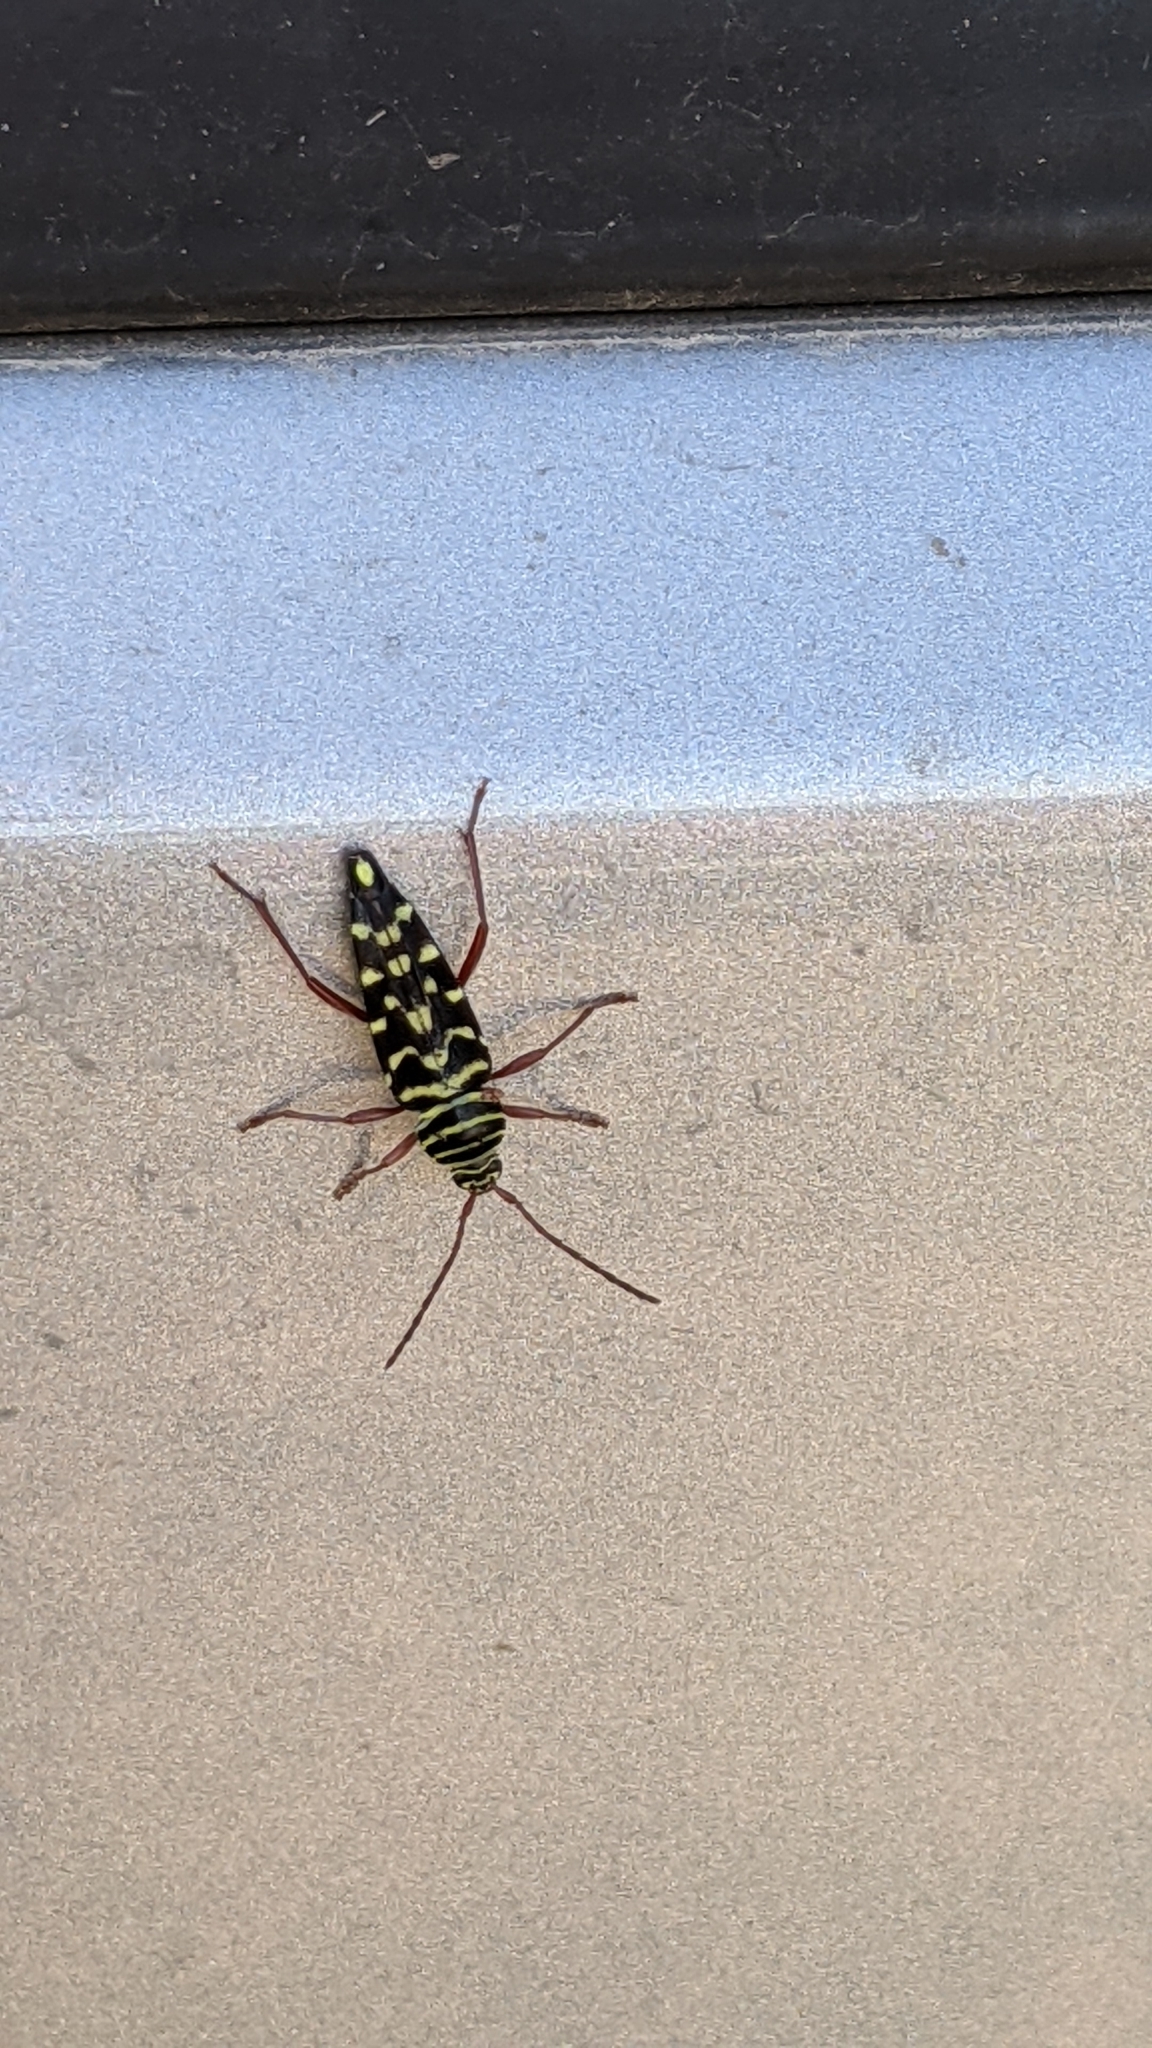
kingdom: Animalia
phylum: Arthropoda
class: Insecta
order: Coleoptera
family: Cerambycidae
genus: Placosternus
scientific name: Placosternus difficilis
